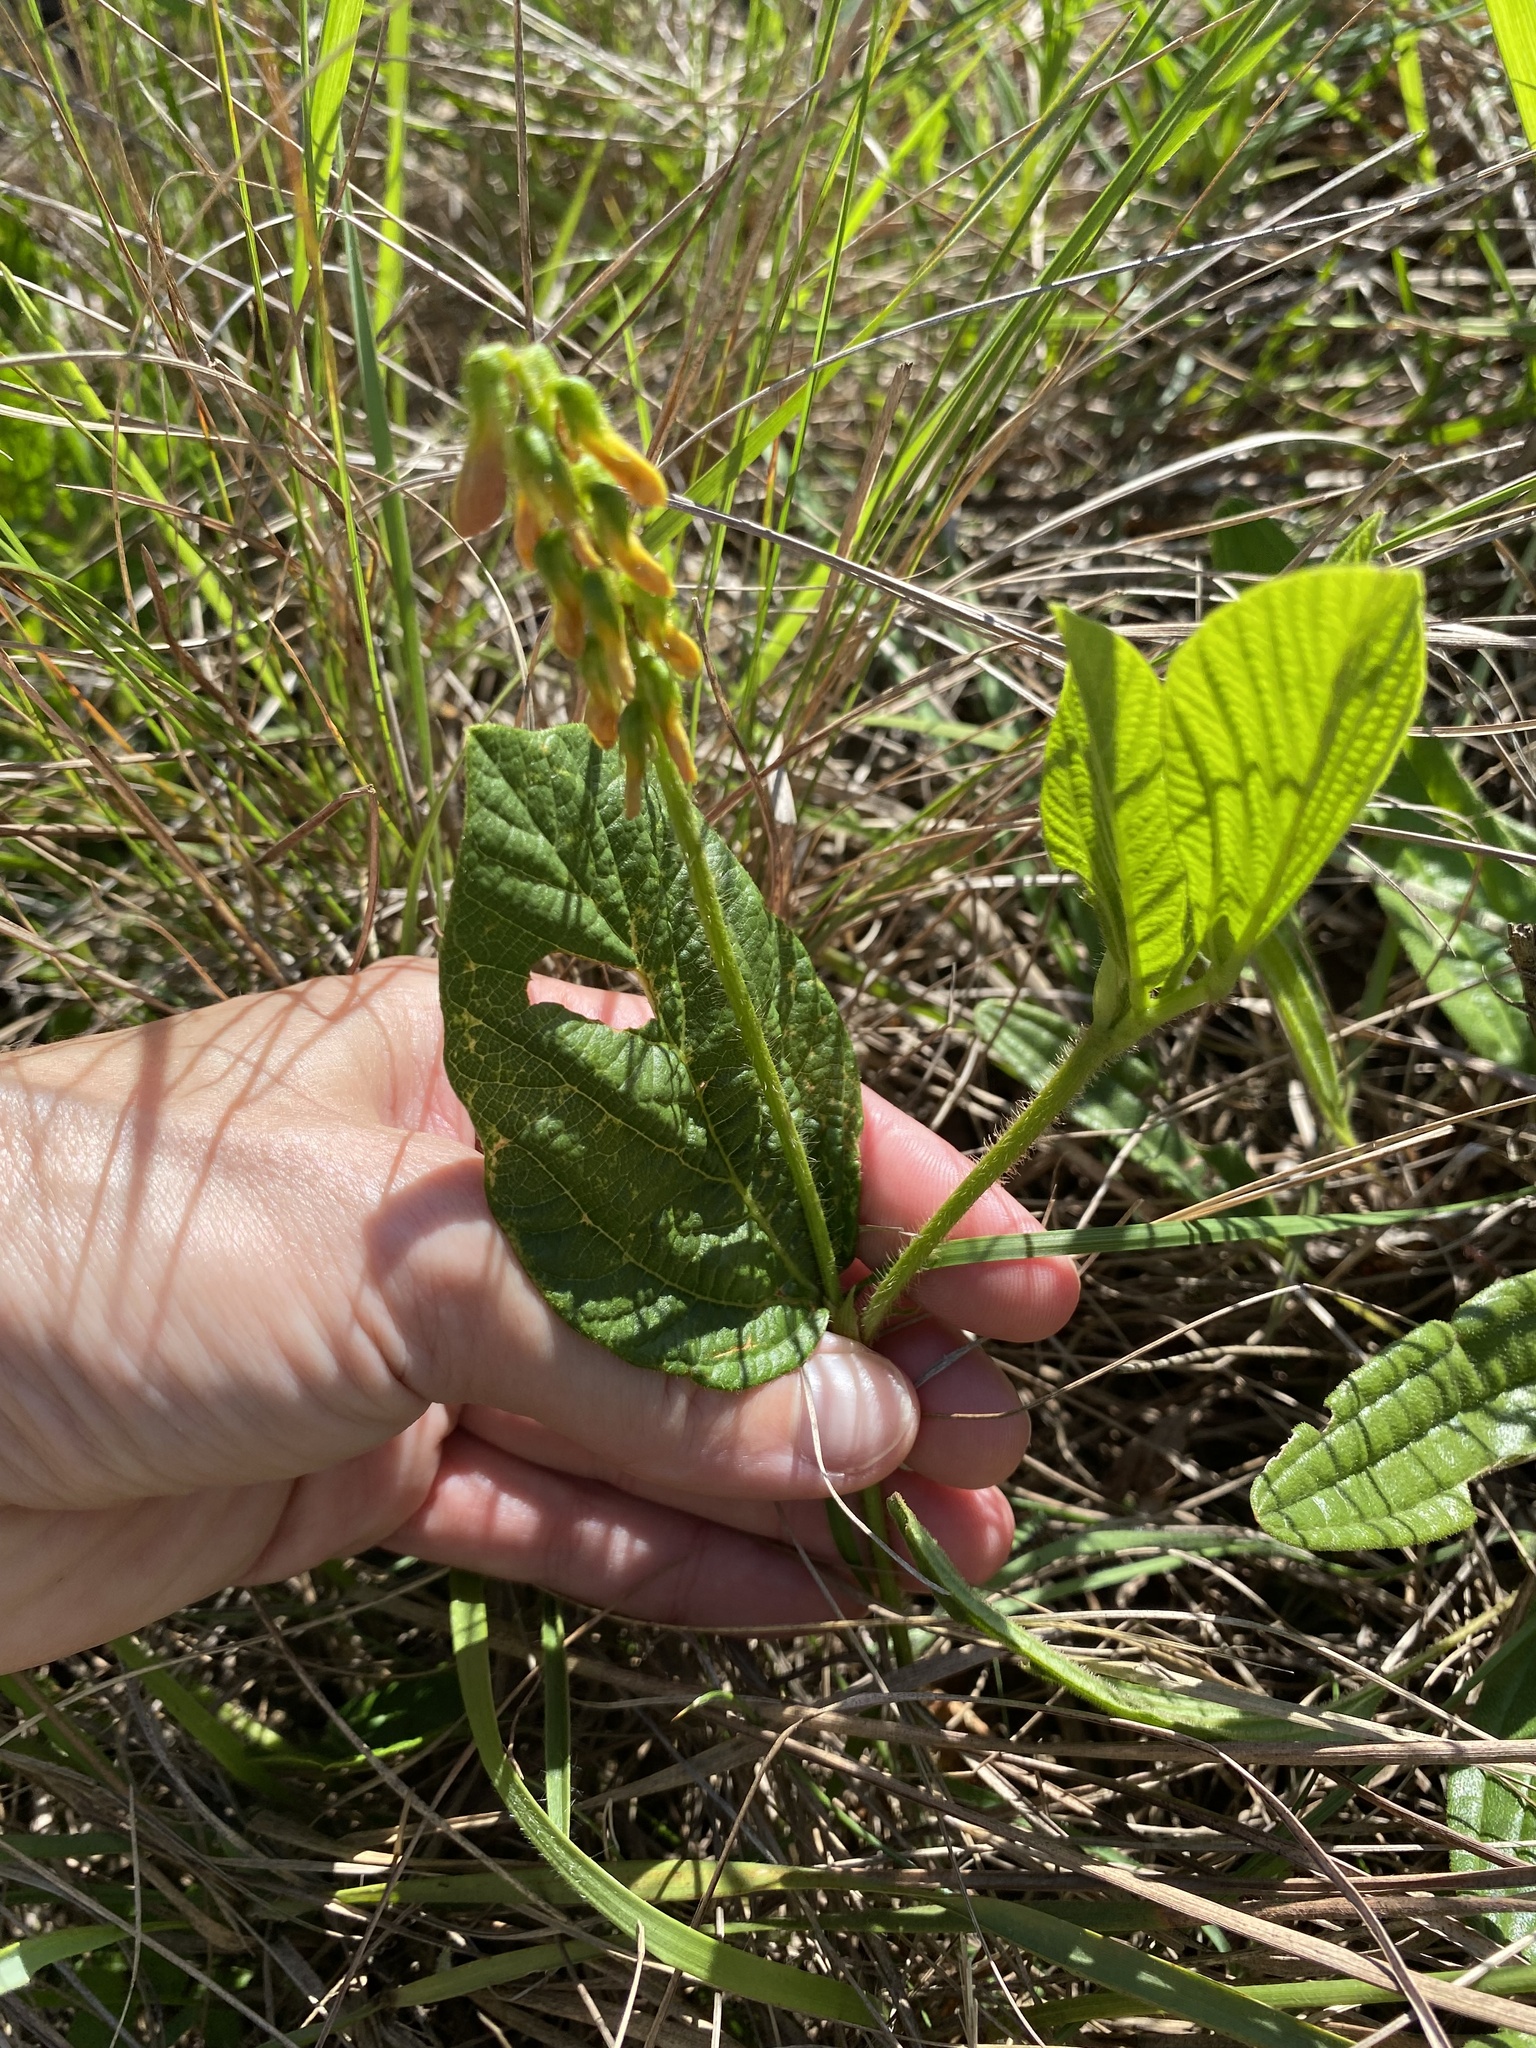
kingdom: Plantae
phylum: Tracheophyta
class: Magnoliopsida
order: Fabales
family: Fabaceae
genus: Eriosema
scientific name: Eriosema cordatum
